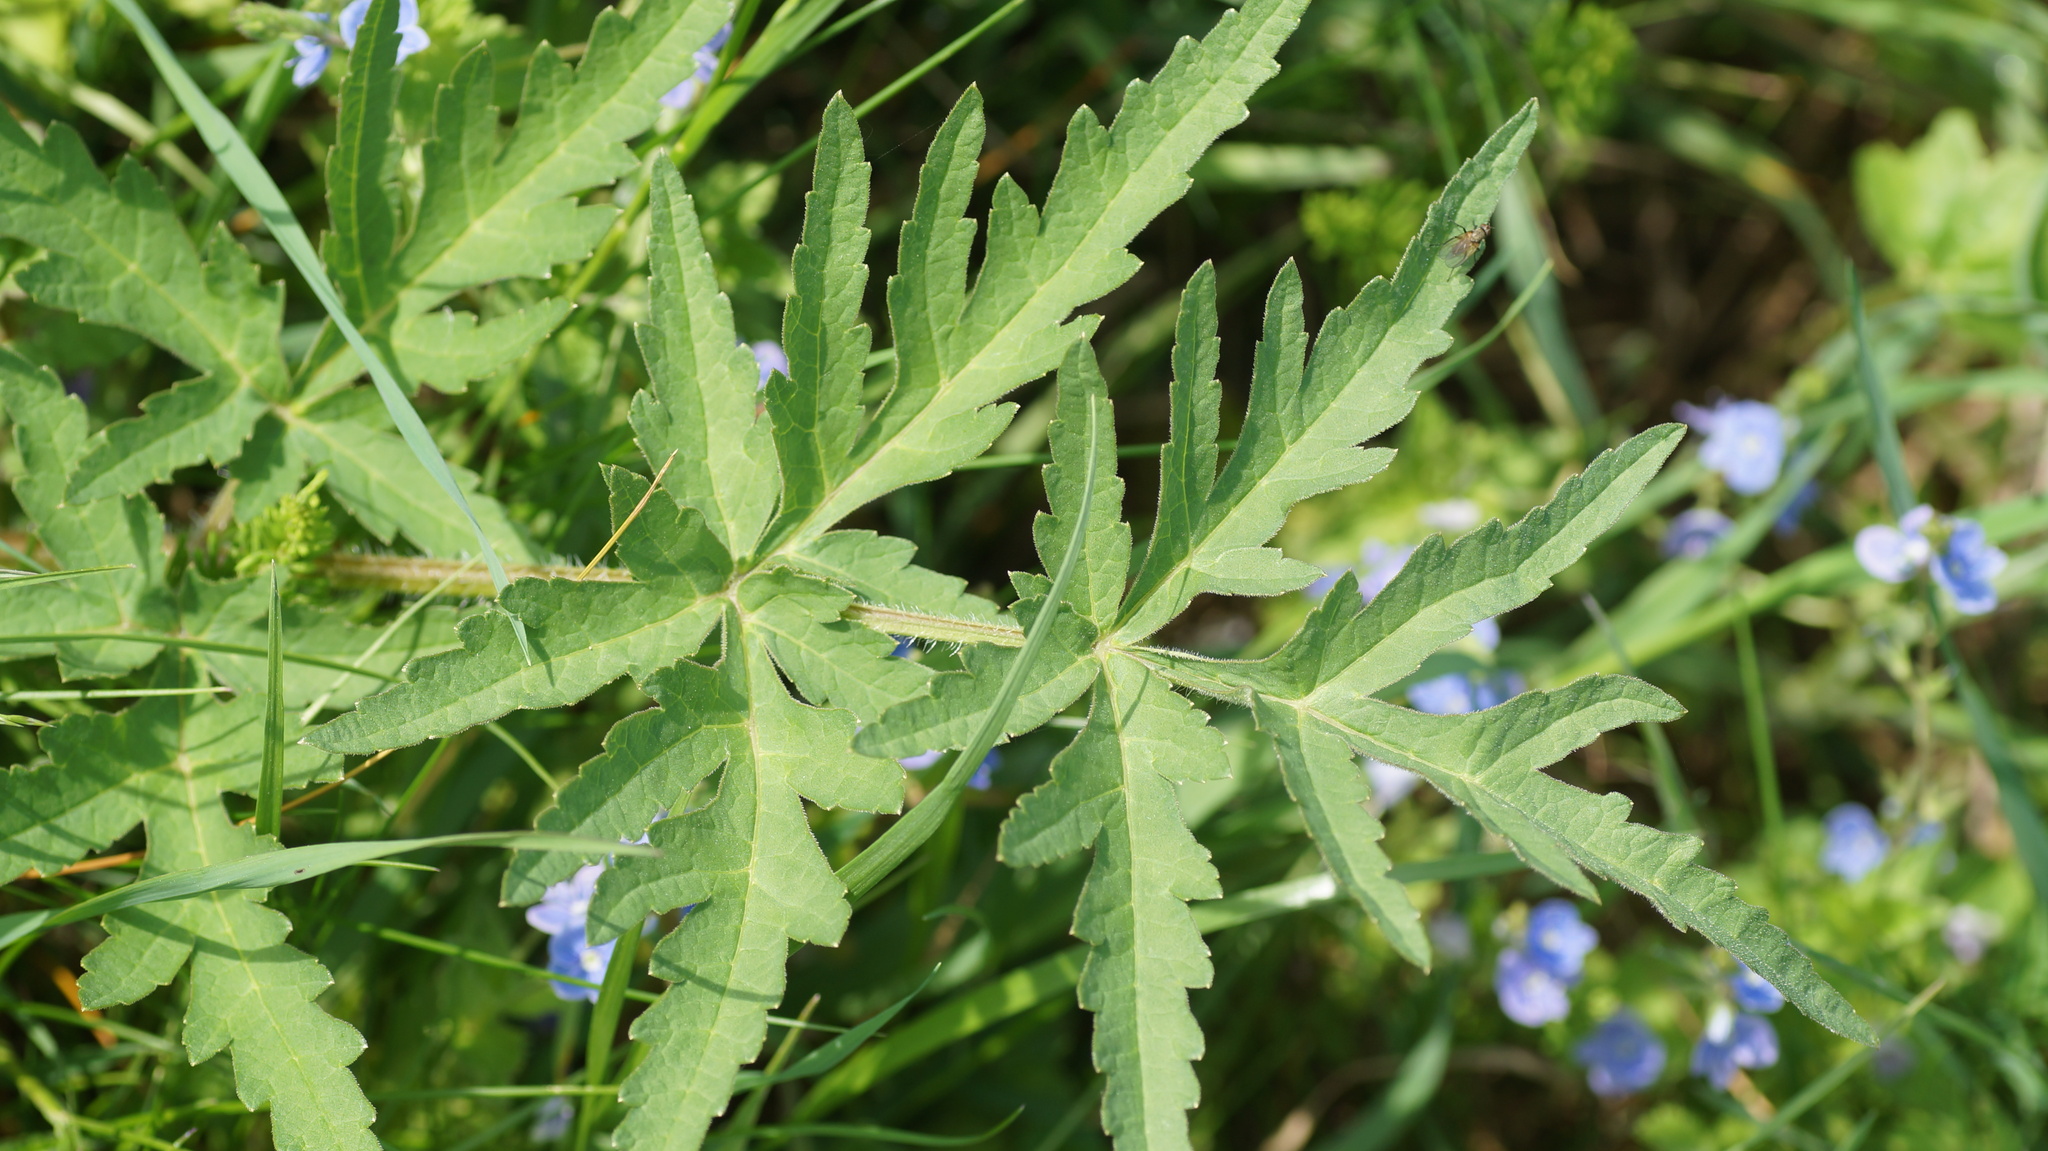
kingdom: Plantae
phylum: Tracheophyta
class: Magnoliopsida
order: Apiales
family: Apiaceae
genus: Heracleum
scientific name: Heracleum sphondylium
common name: Hogweed
